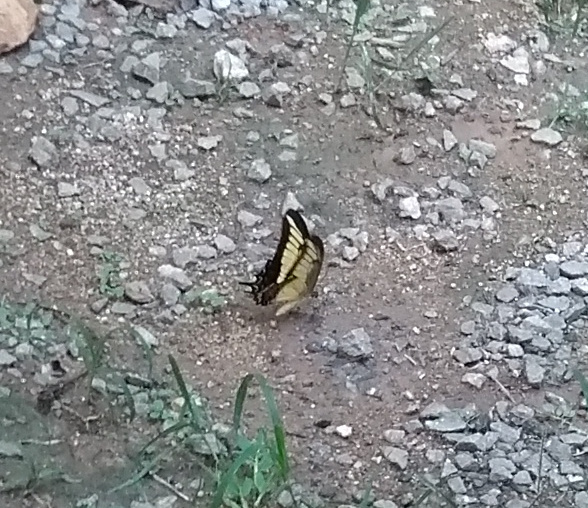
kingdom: Animalia
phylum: Arthropoda
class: Insecta
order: Lepidoptera
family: Papilionidae
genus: Papilio
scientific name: Papilio androgeus
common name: Androgeus swallowtail
